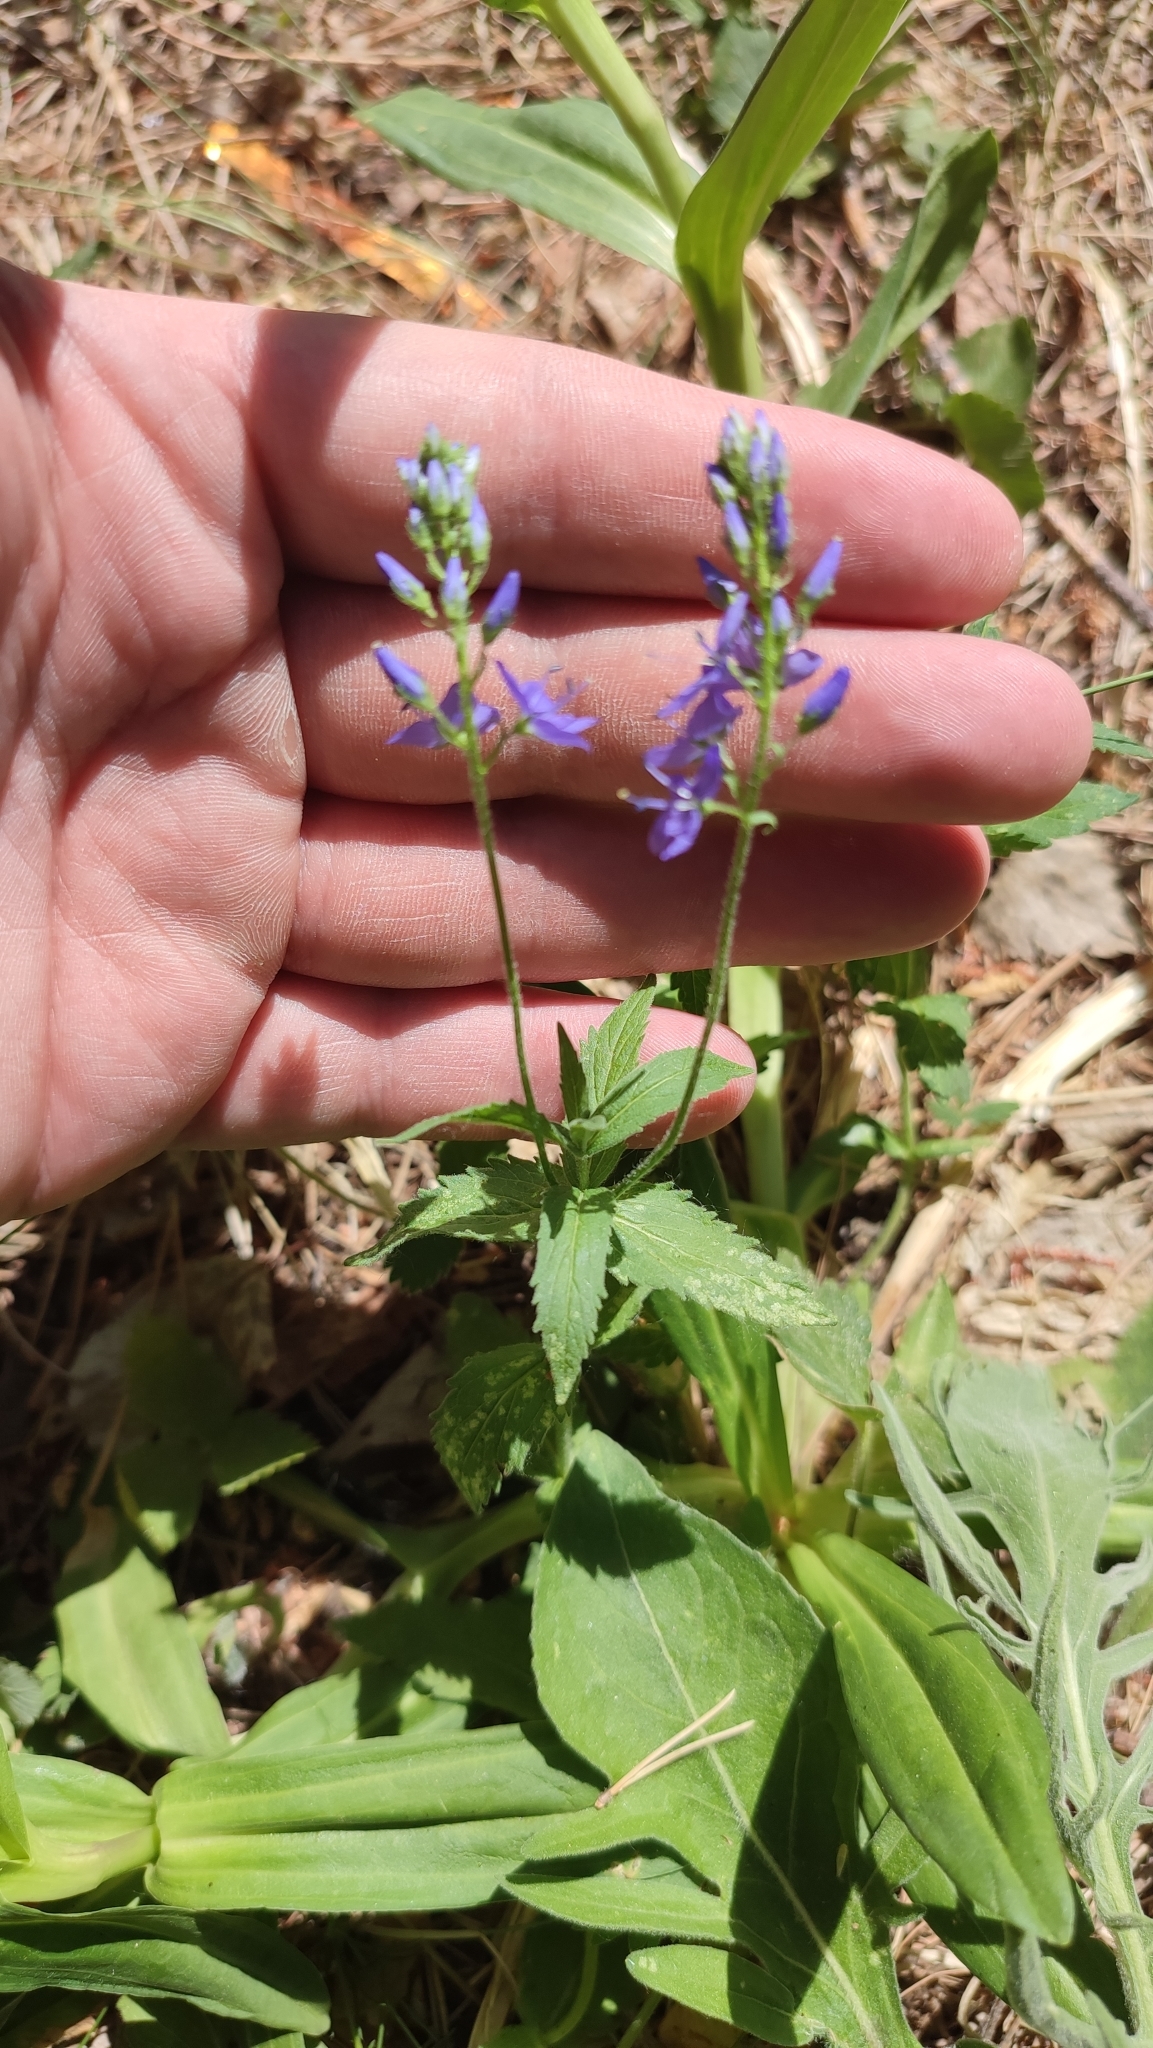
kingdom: Plantae
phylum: Tracheophyta
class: Magnoliopsida
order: Lamiales
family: Plantaginaceae
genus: Veronica
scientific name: Veronica teucrium
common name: Large speedwell
